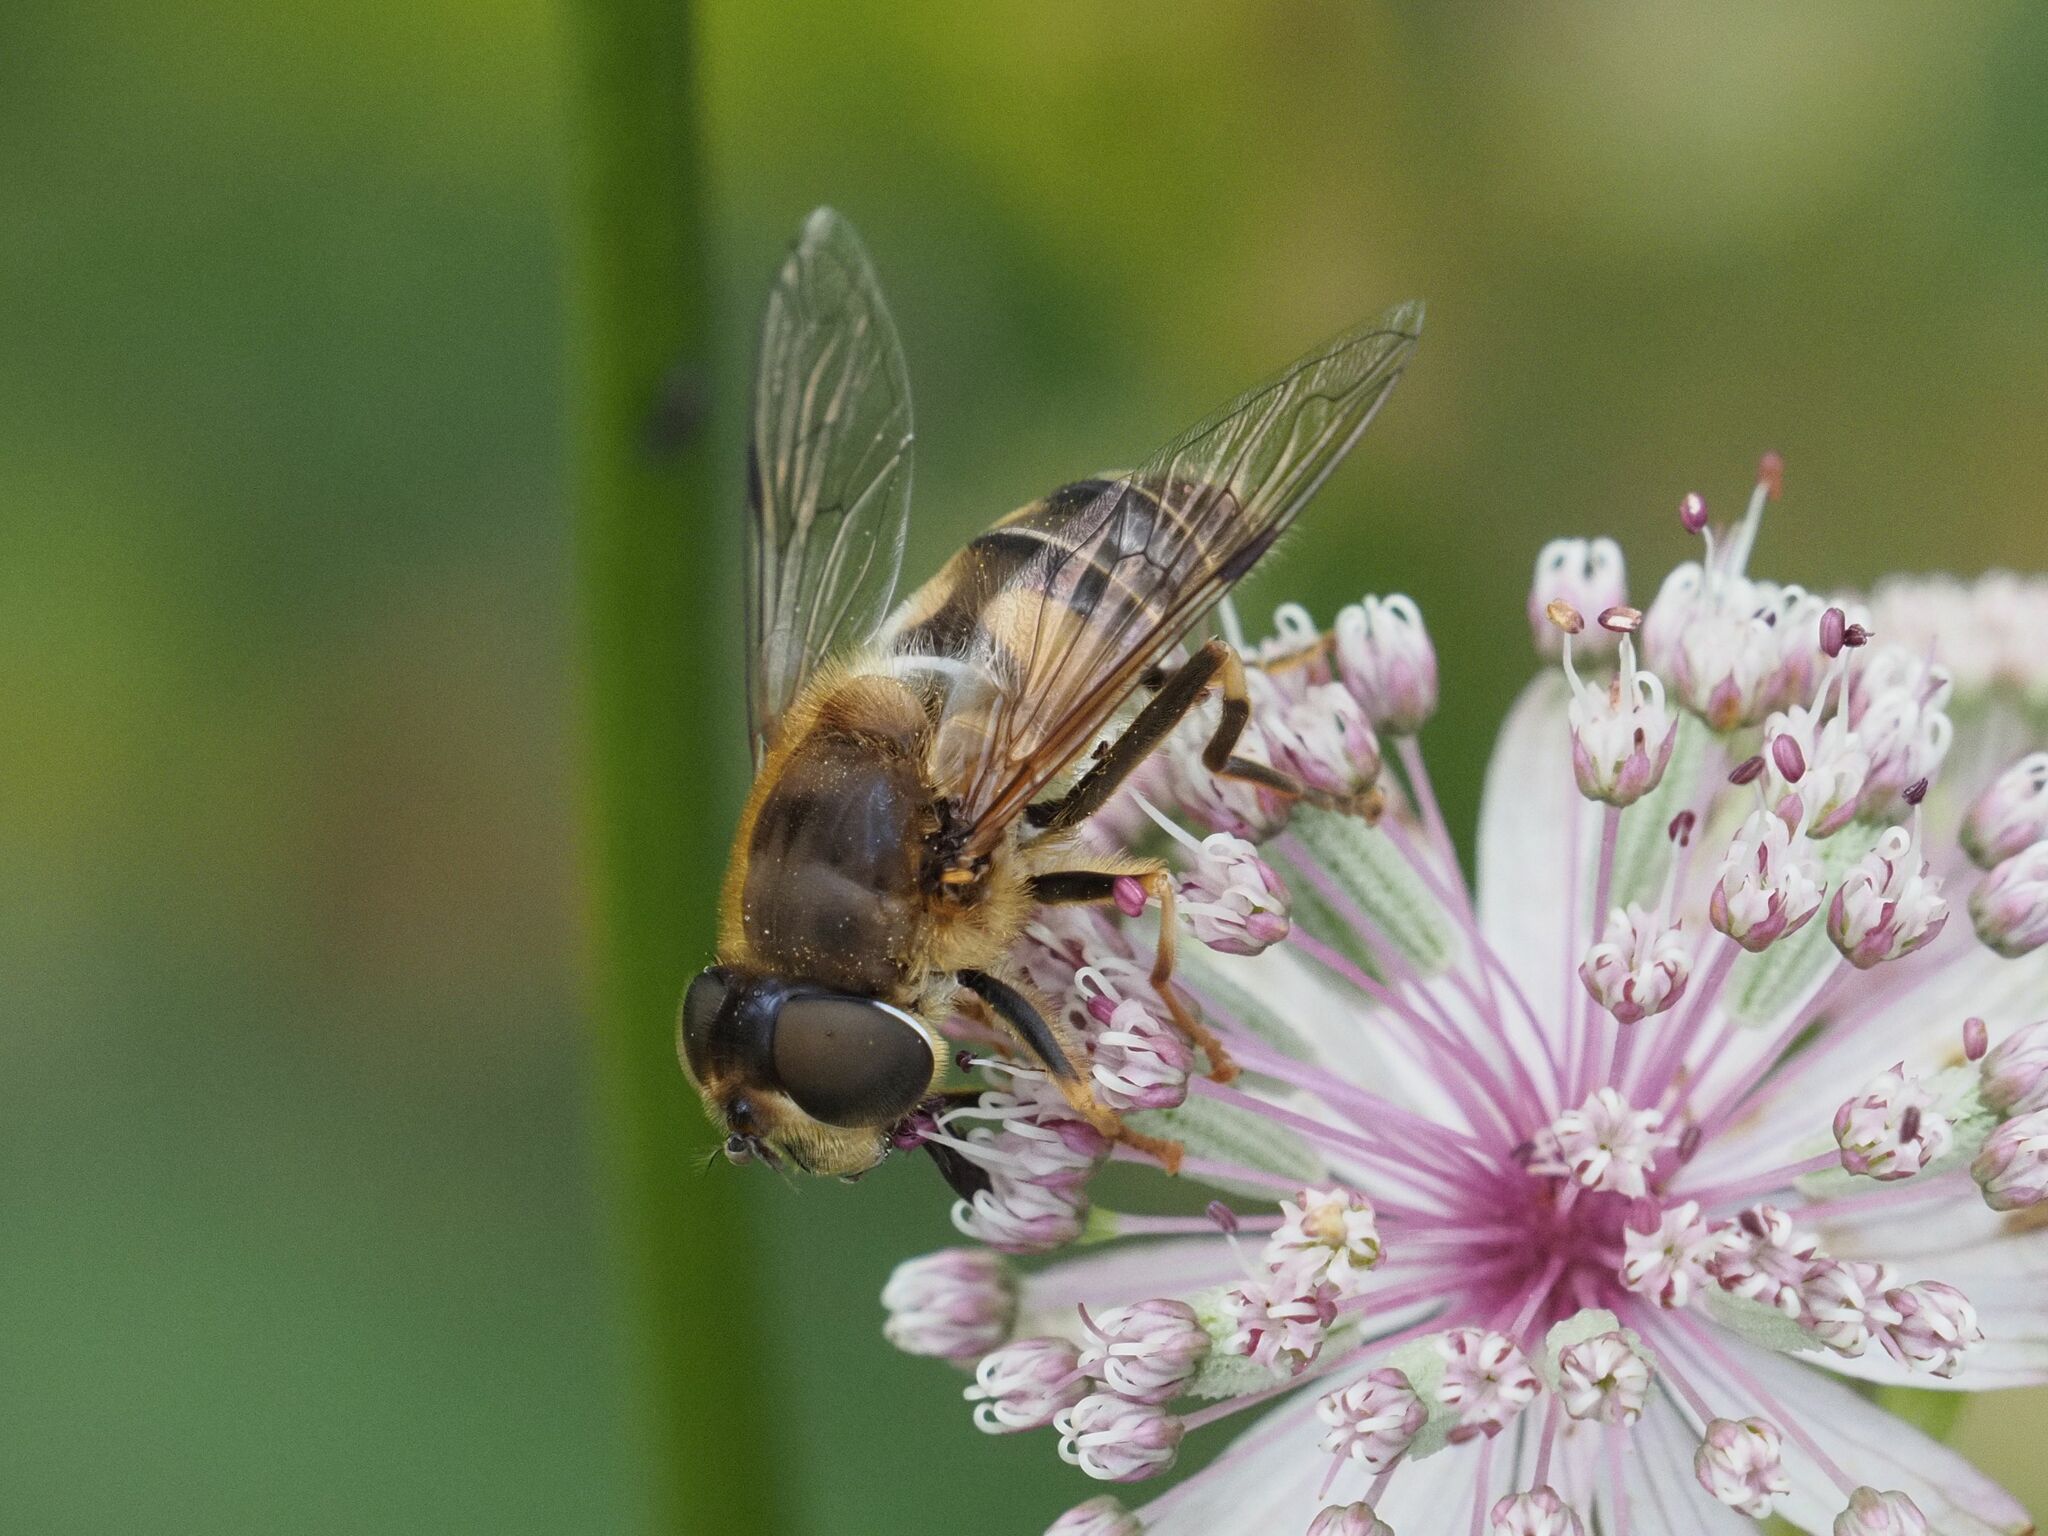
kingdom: Animalia
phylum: Arthropoda
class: Insecta
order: Diptera
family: Syrphidae
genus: Eristalis
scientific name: Eristalis pertinax
